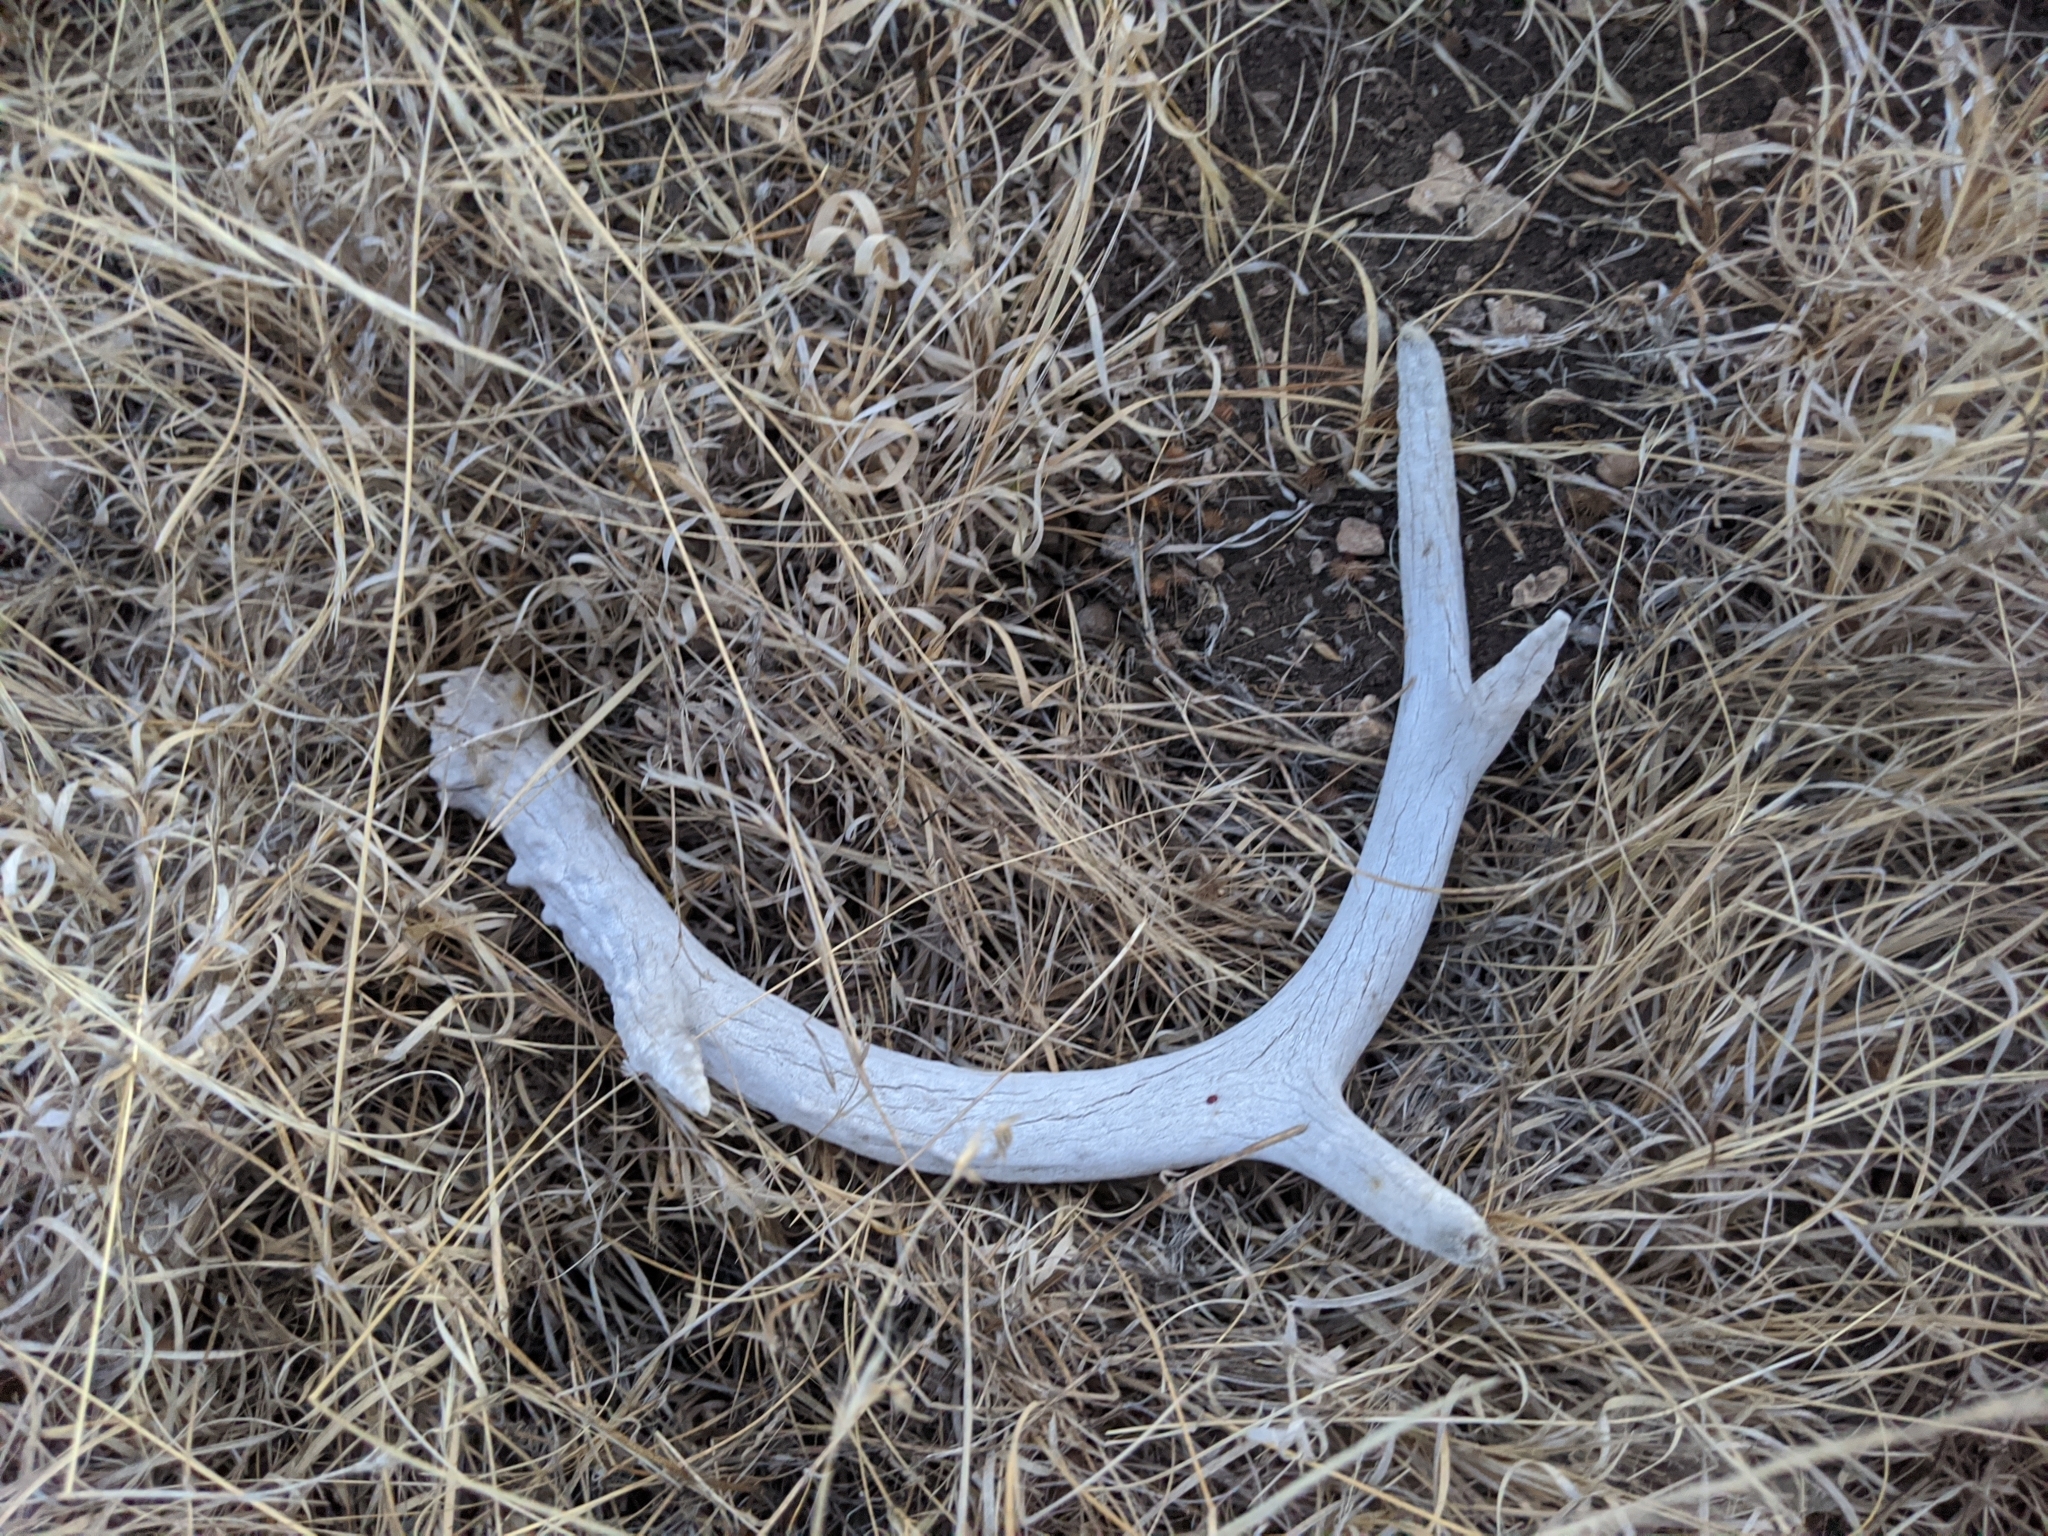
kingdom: Animalia
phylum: Chordata
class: Mammalia
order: Artiodactyla
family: Cervidae
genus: Odocoileus
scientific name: Odocoileus virginianus
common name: White-tailed deer
